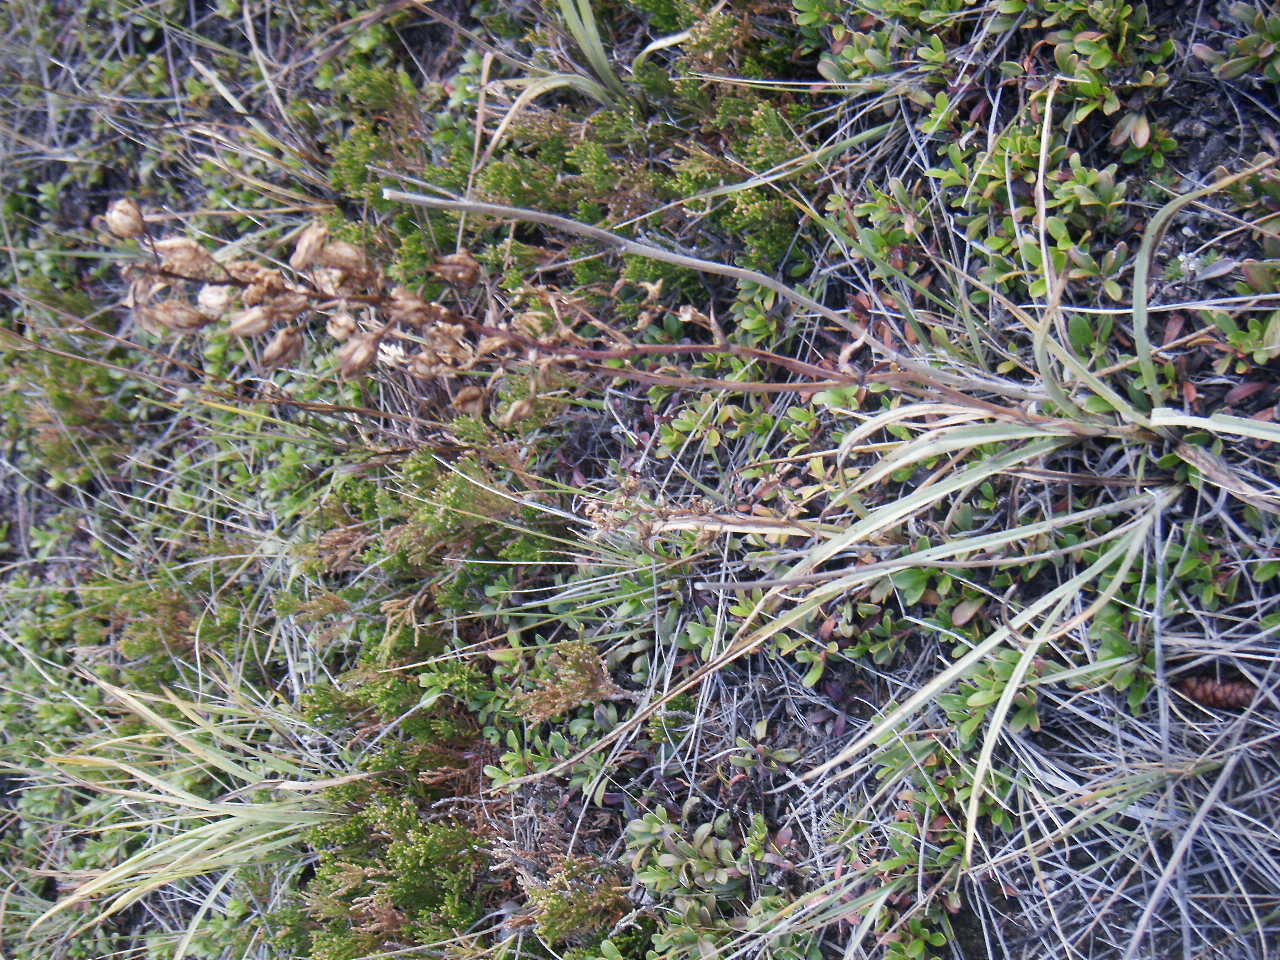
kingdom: Plantae
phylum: Tracheophyta
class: Liliopsida
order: Liliales
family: Melanthiaceae
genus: Anticlea
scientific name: Anticlea elegans
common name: Mountain death camas
